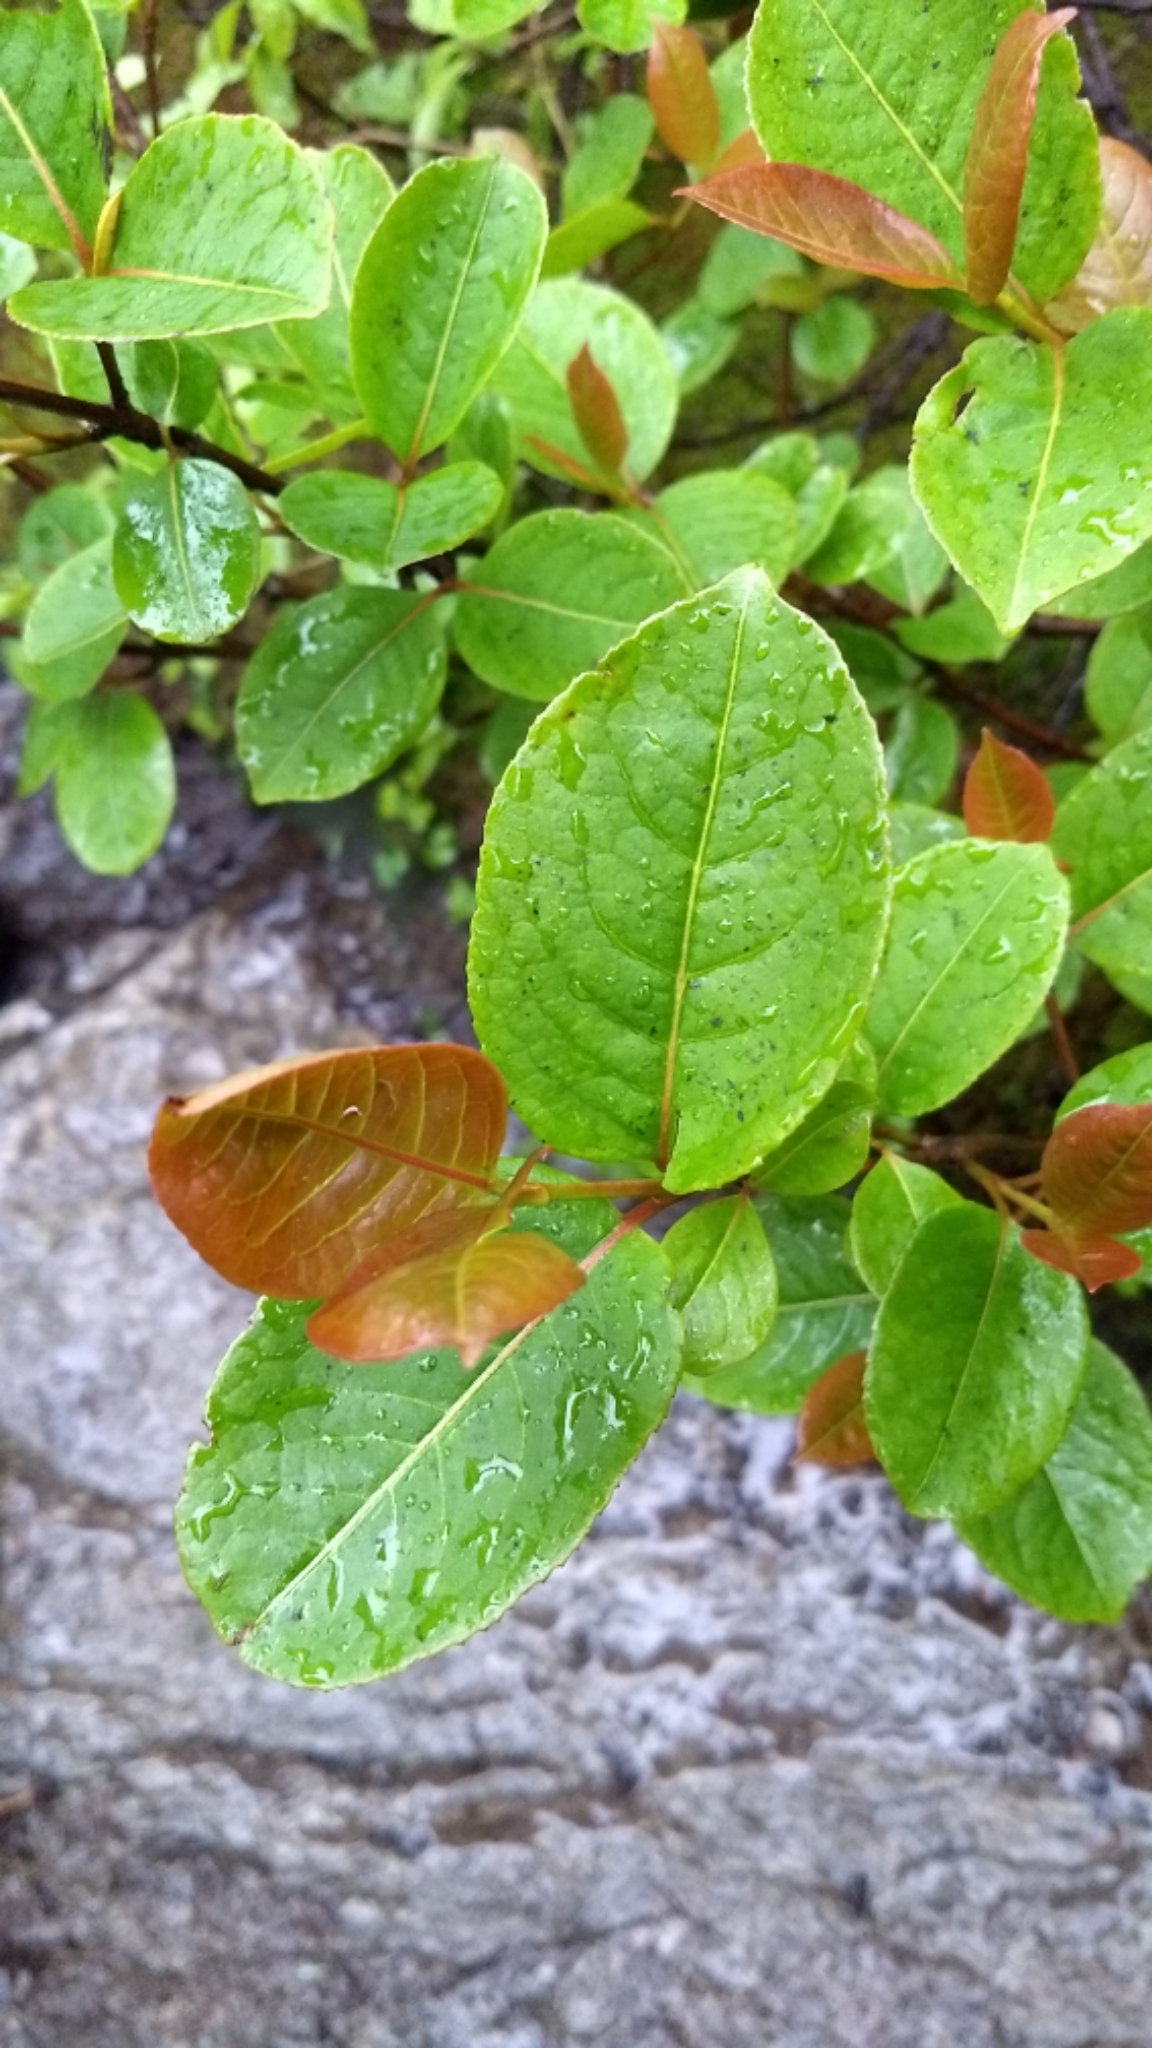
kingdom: Plantae
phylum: Tracheophyta
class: Magnoliopsida
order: Dipsacales
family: Viburnaceae
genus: Viburnum
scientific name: Viburnum cassinoides
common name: Swamp haw
